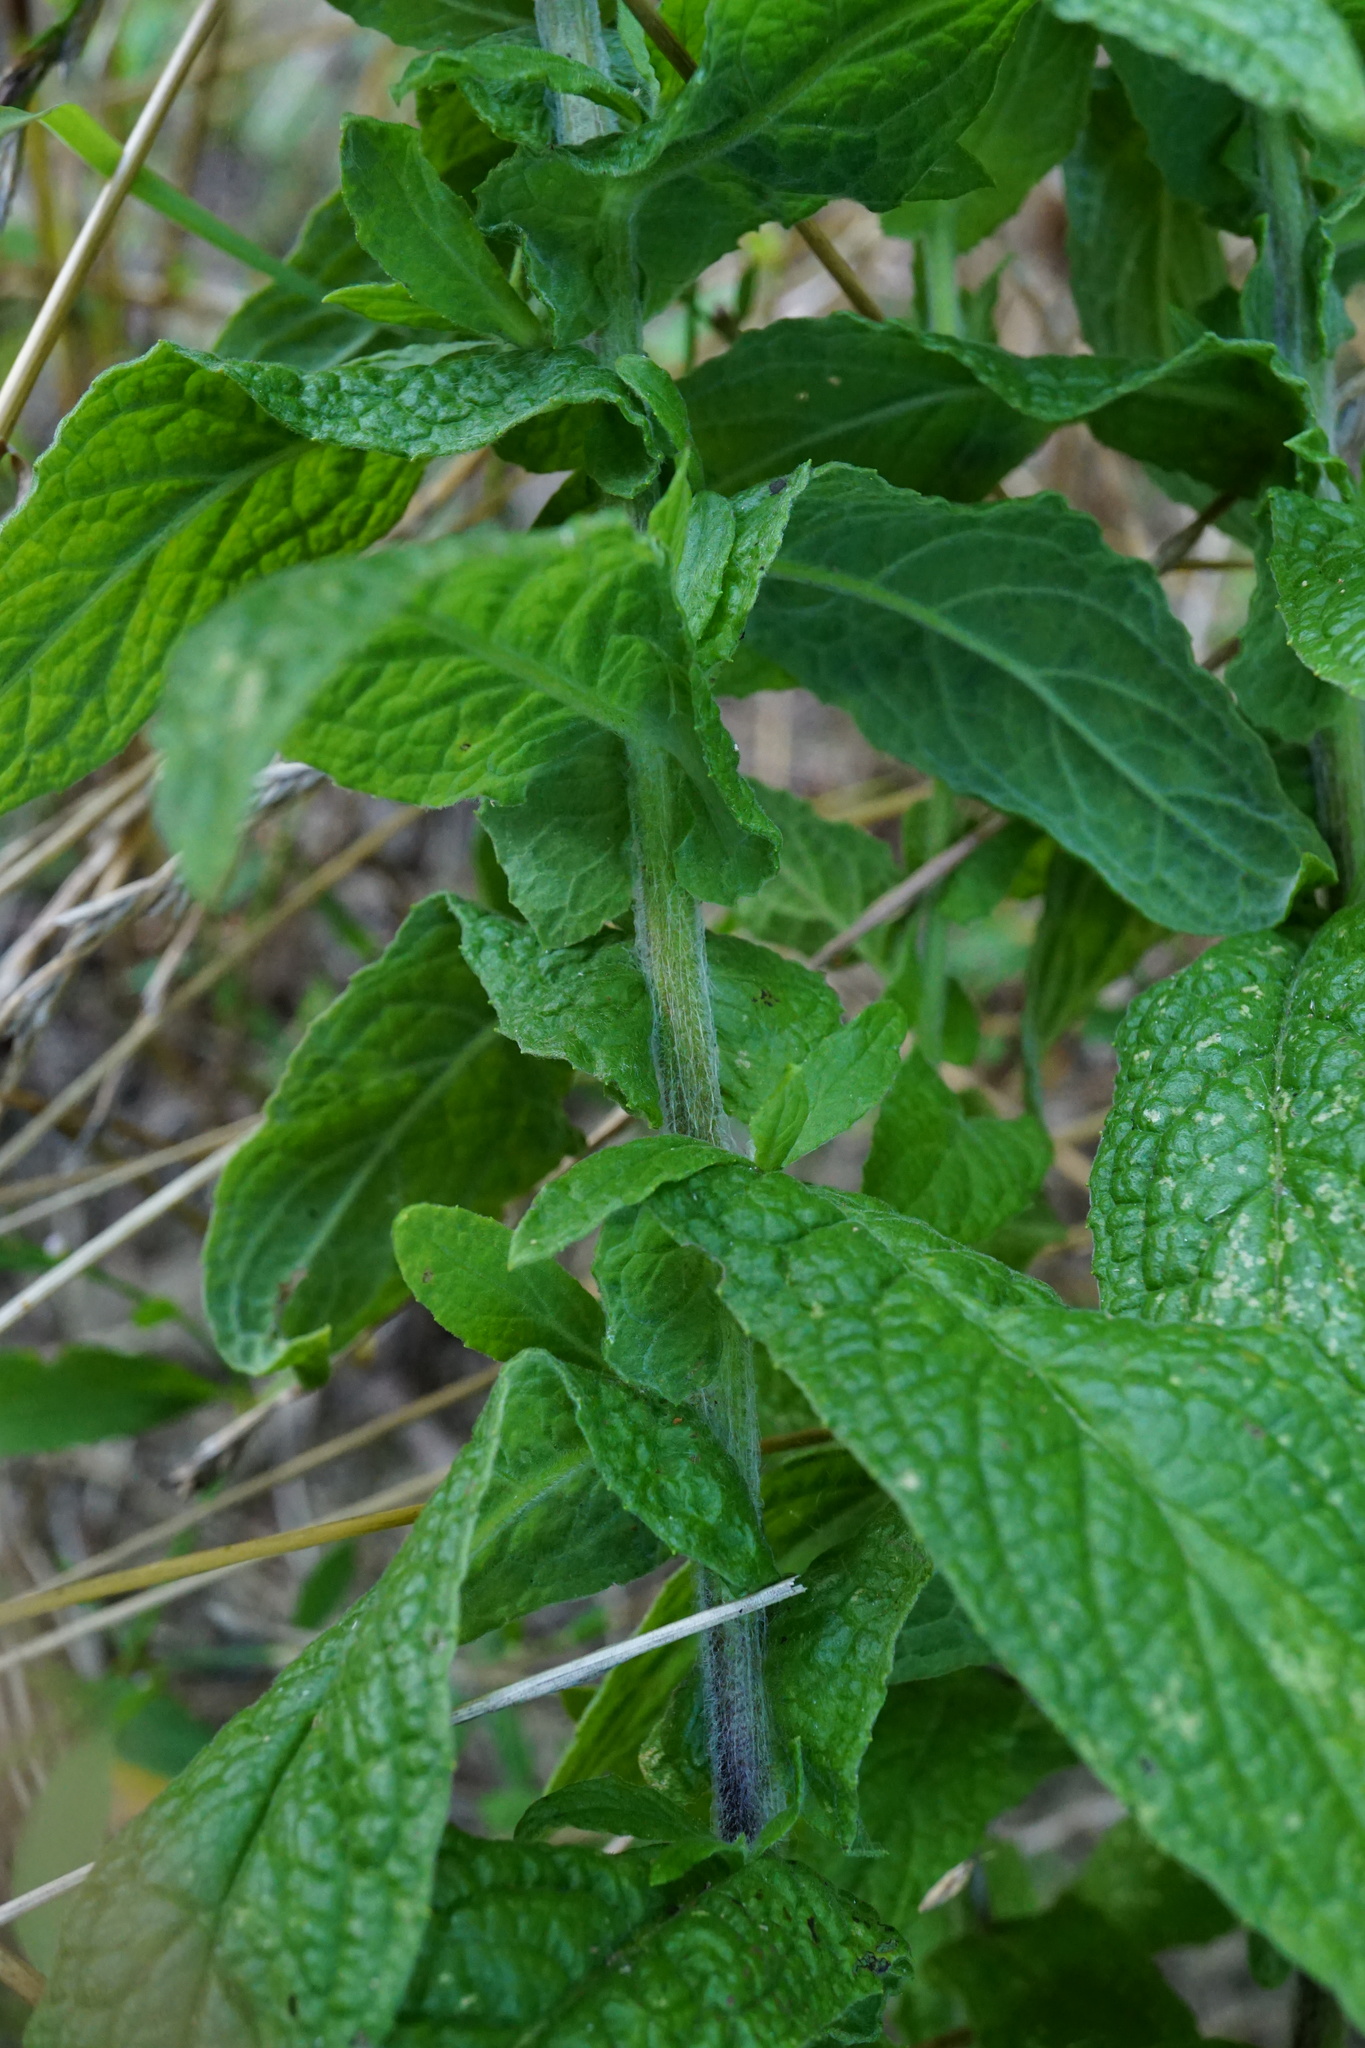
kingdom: Plantae
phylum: Tracheophyta
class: Magnoliopsida
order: Asterales
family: Asteraceae
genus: Pulicaria
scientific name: Pulicaria dysenterica
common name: Common fleabane
